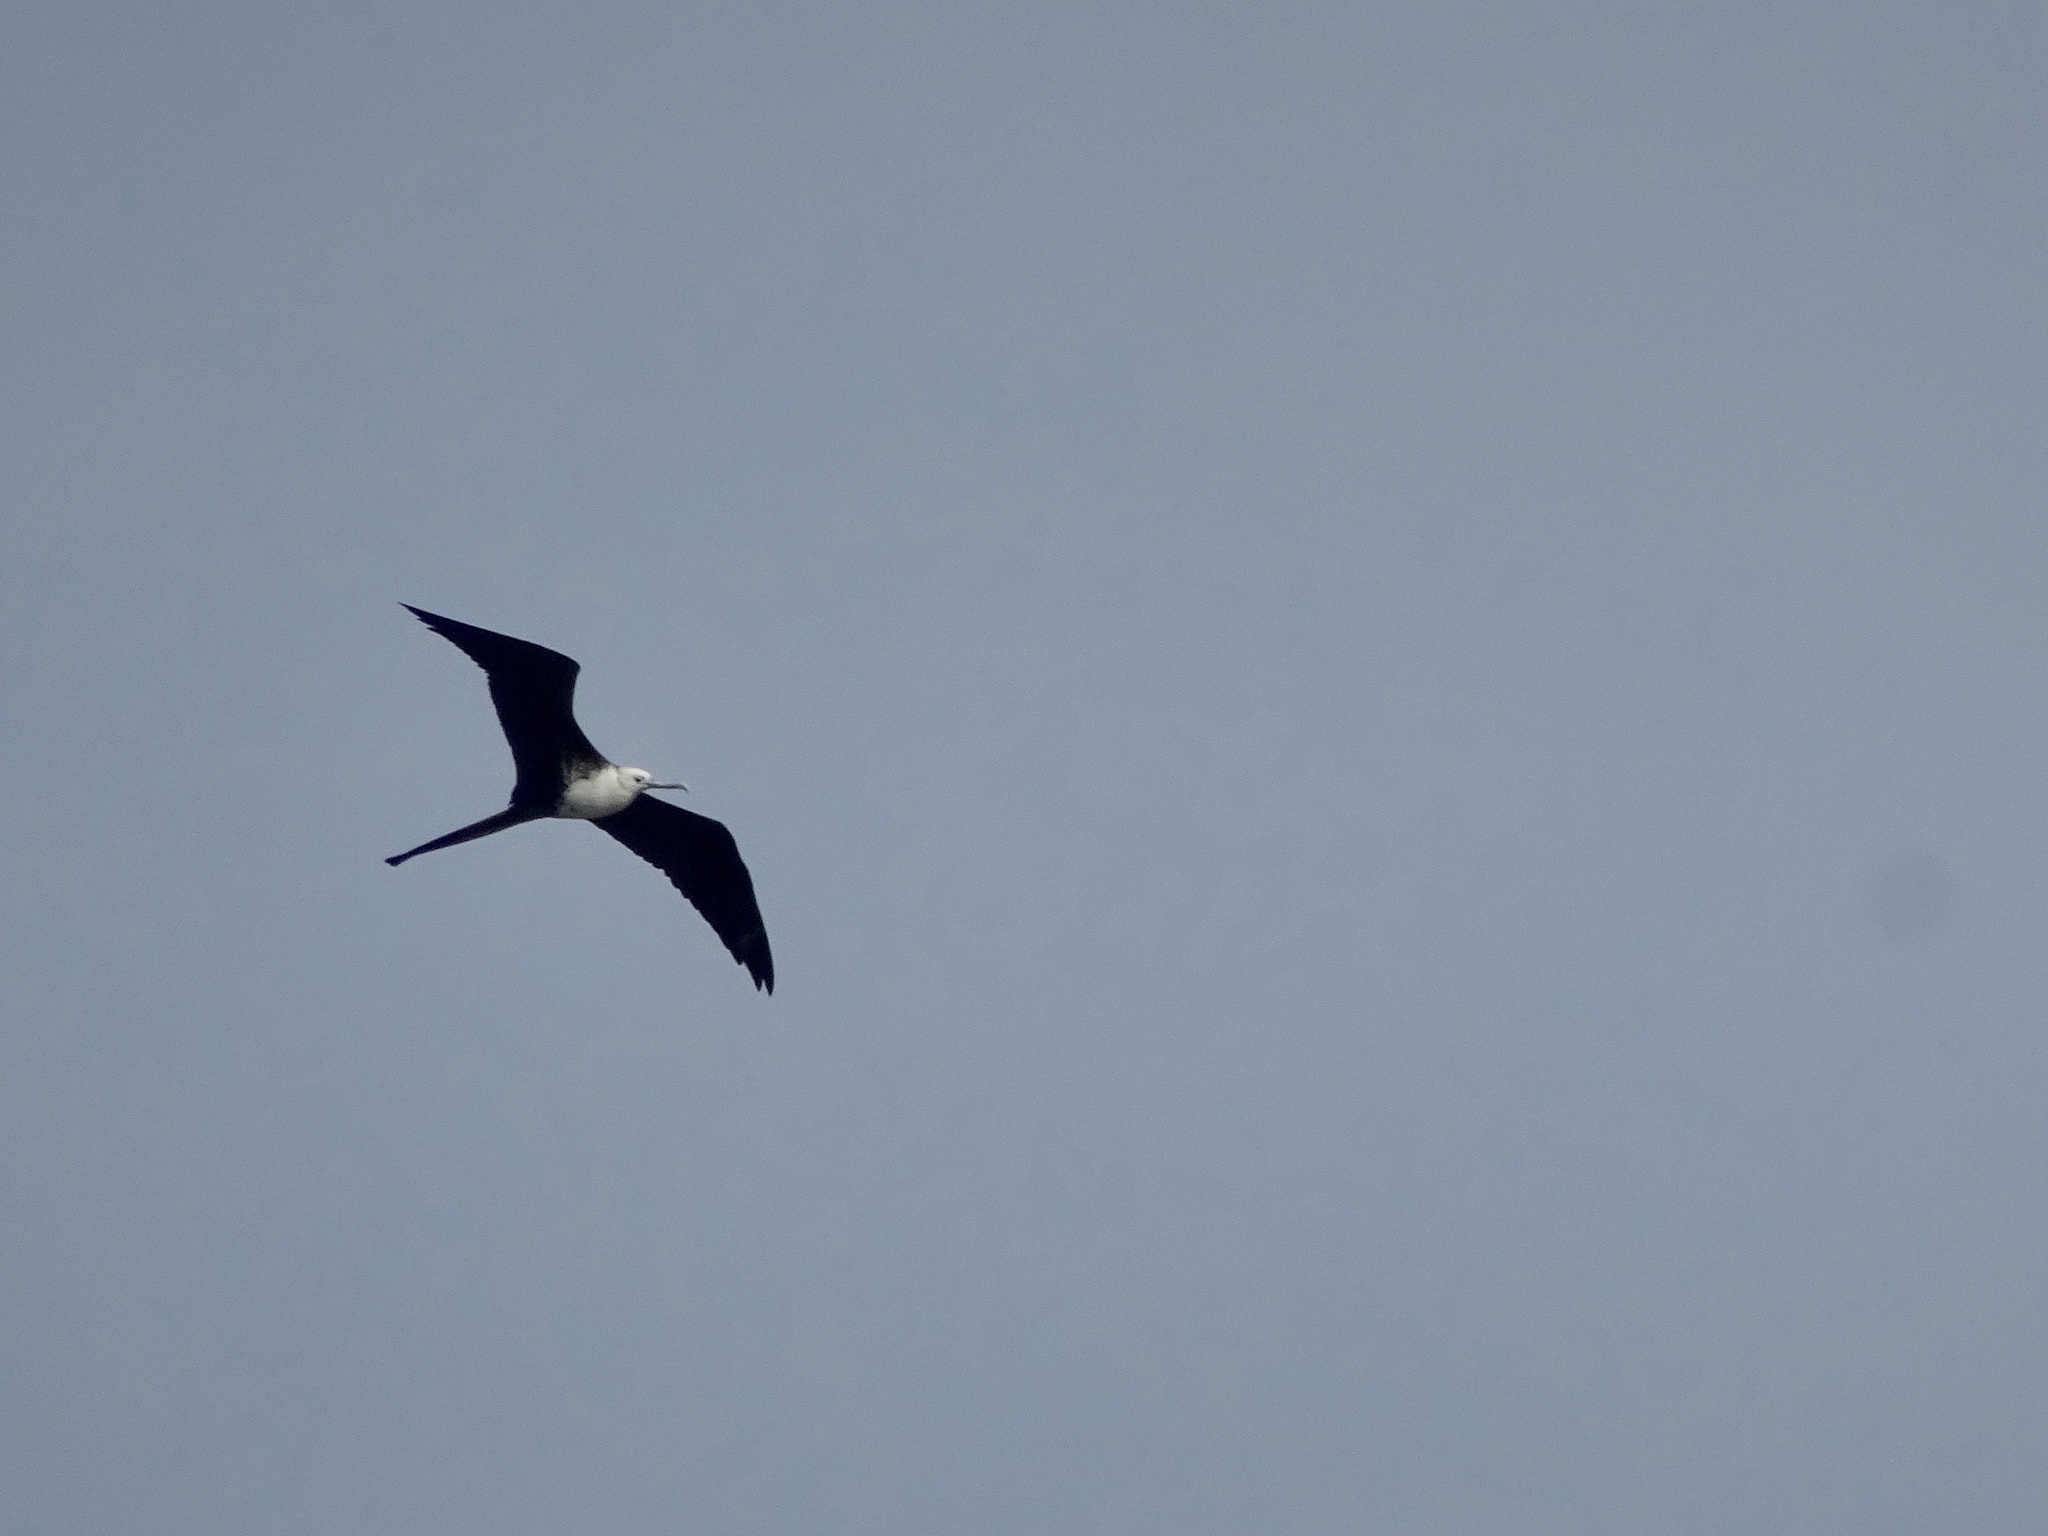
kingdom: Animalia
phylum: Chordata
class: Aves
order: Suliformes
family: Fregatidae
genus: Fregata
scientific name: Fregata magnificens
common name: Magnificent frigatebird
